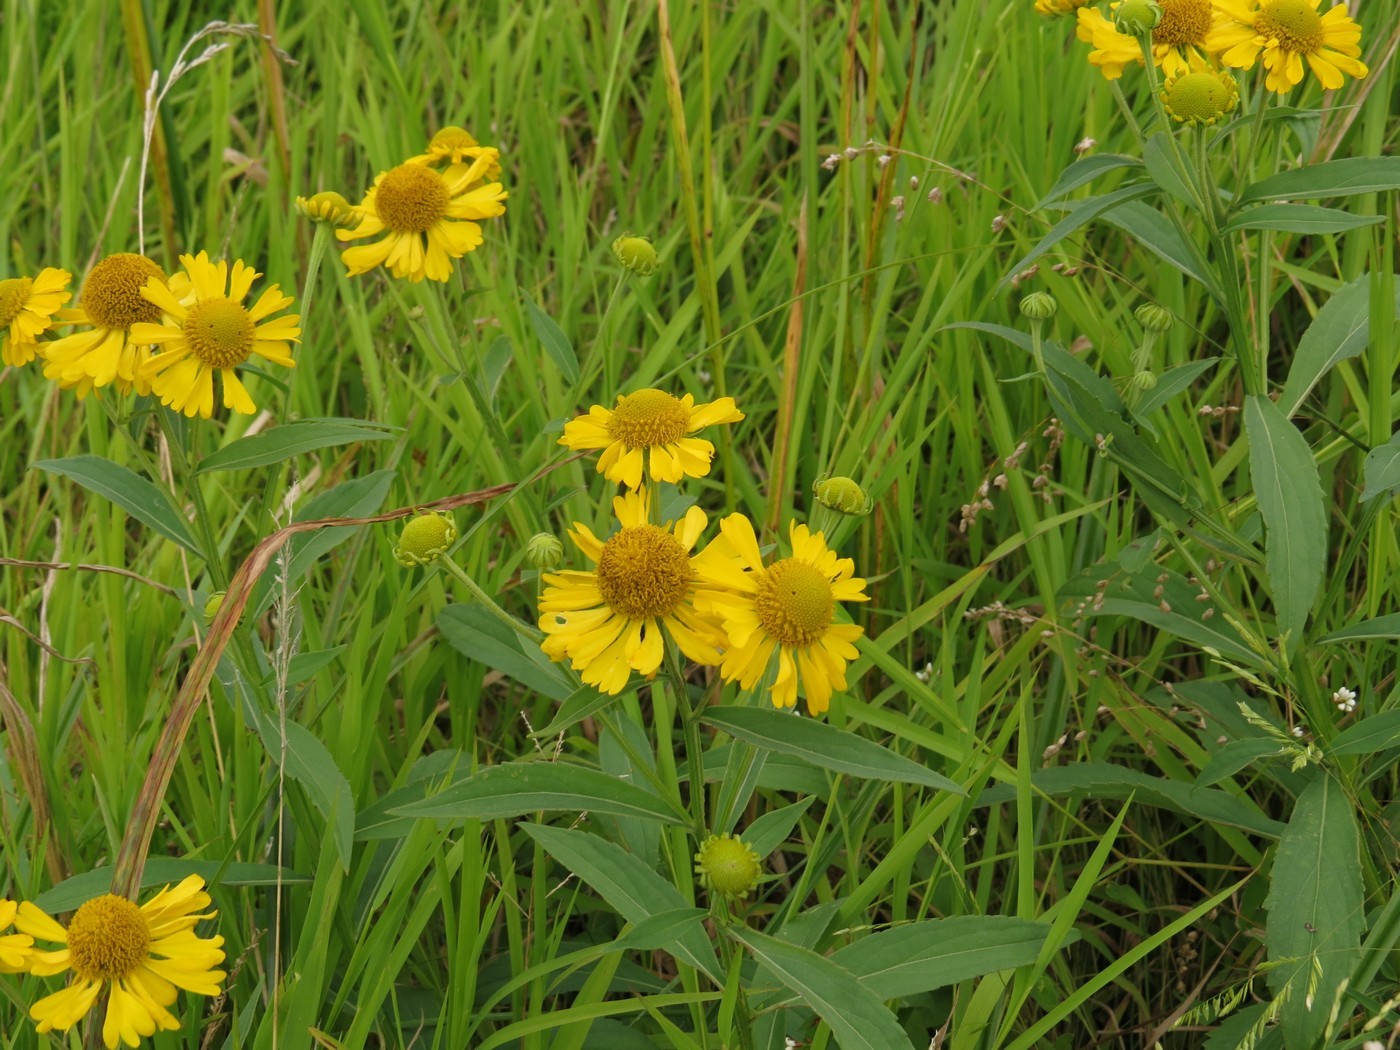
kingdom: Plantae
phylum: Tracheophyta
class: Magnoliopsida
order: Asterales
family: Asteraceae
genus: Helenium
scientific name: Helenium autumnale
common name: Sneezeweed
